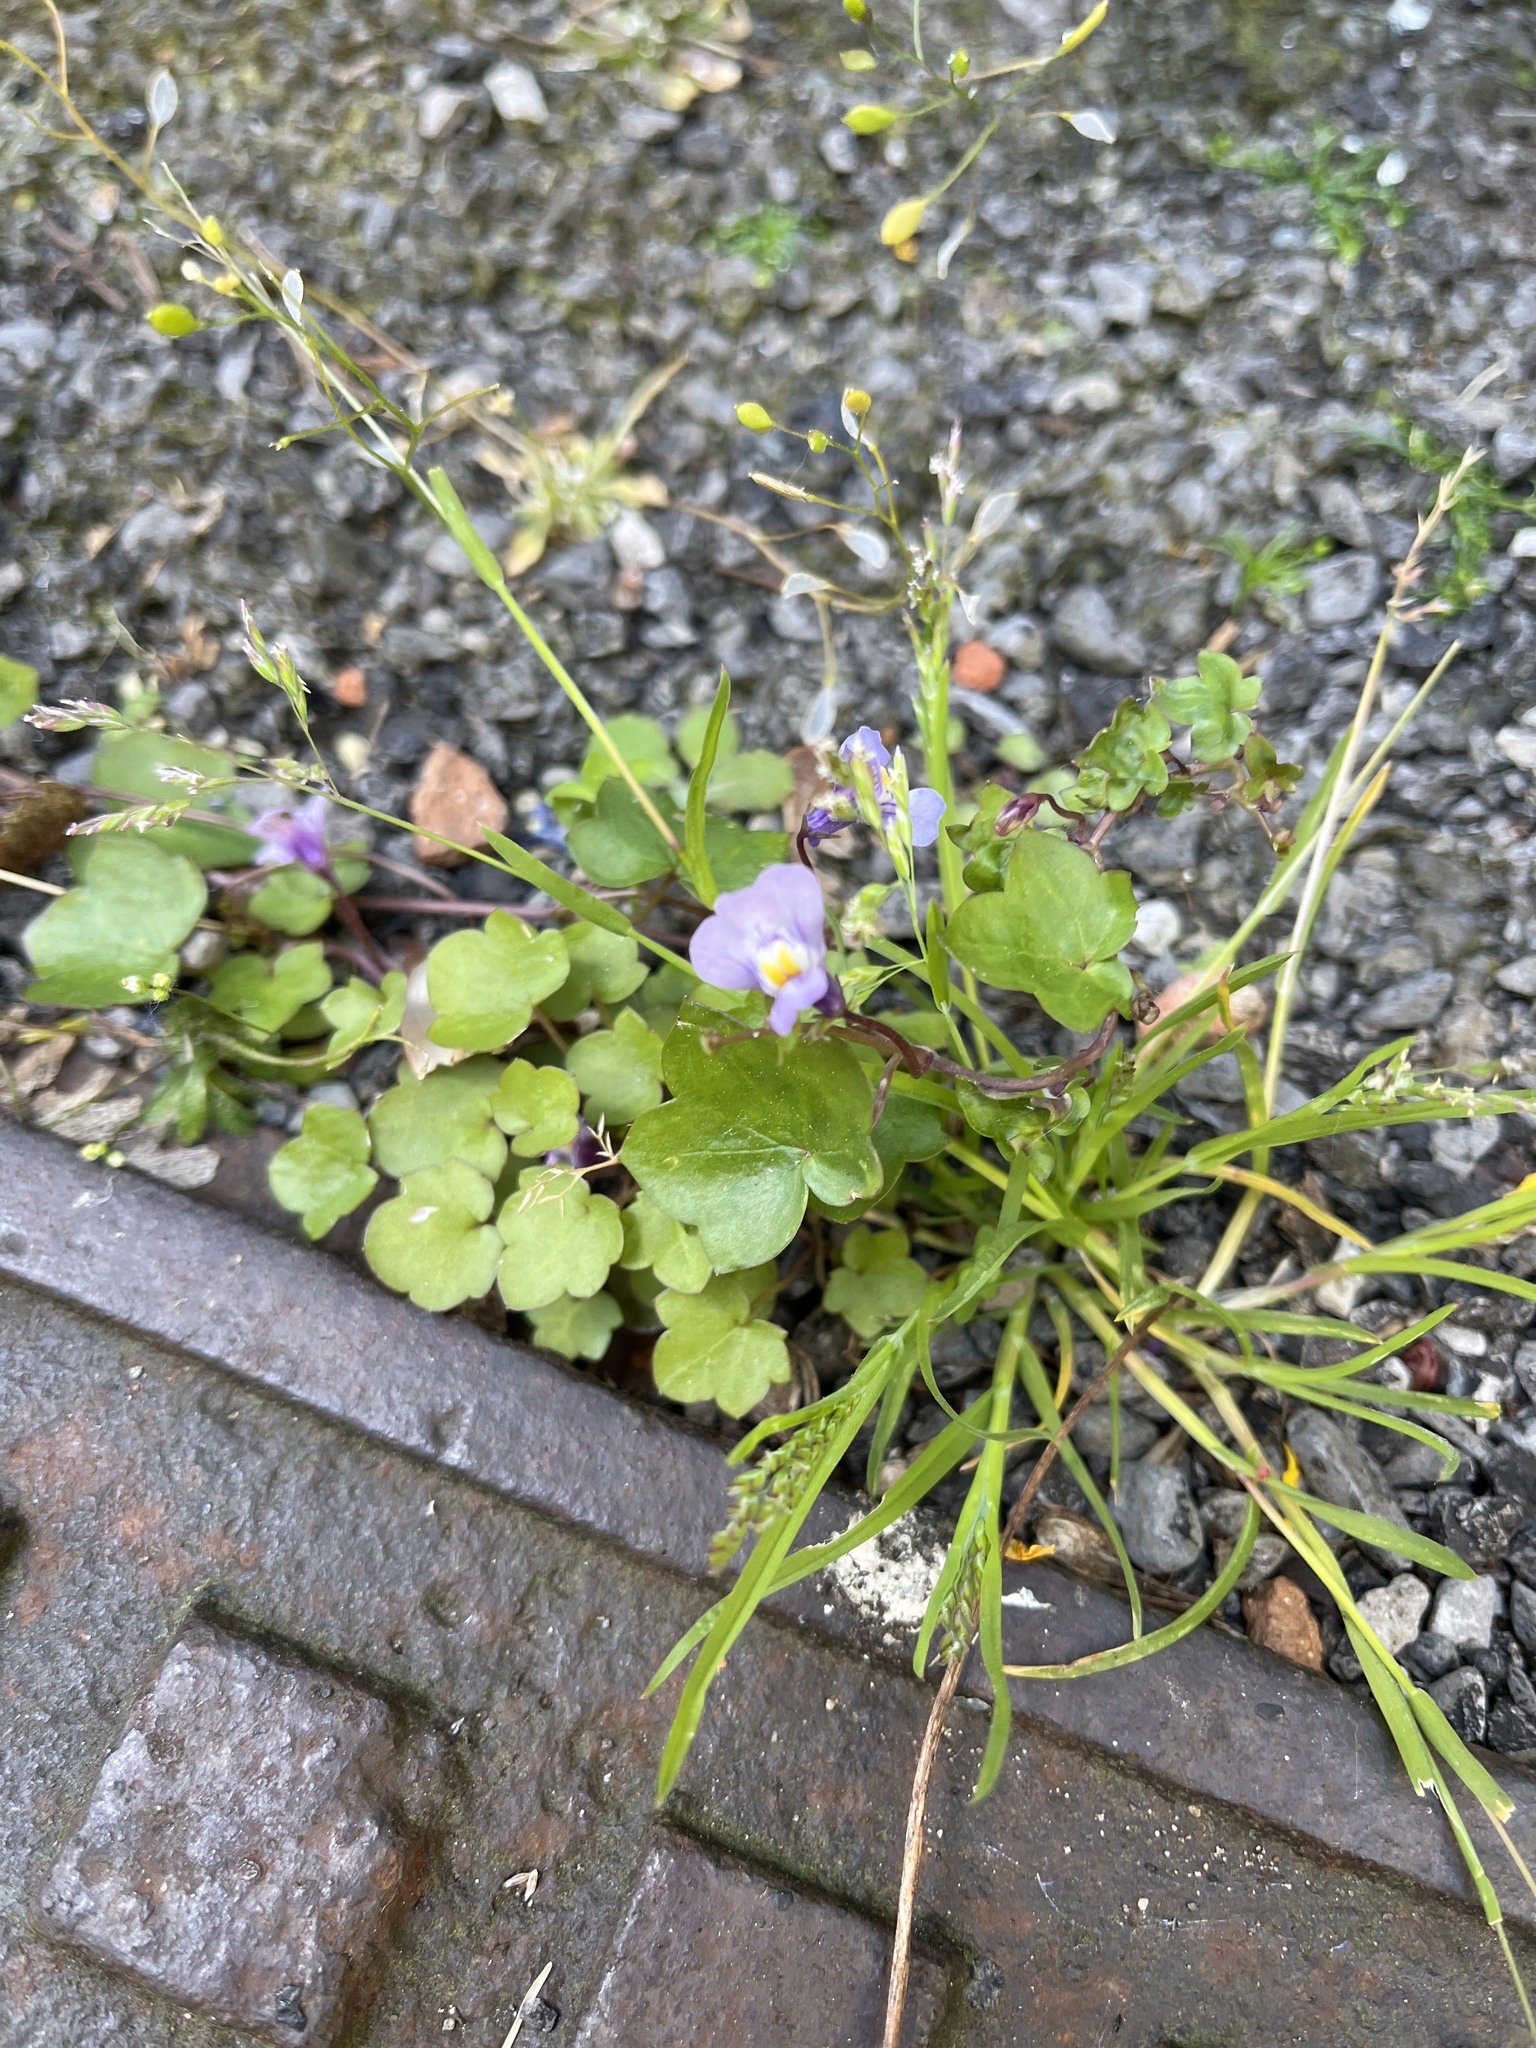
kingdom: Plantae
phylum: Tracheophyta
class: Magnoliopsida
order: Lamiales
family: Plantaginaceae
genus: Cymbalaria
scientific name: Cymbalaria muralis
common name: Ivy-leaved toadflax
